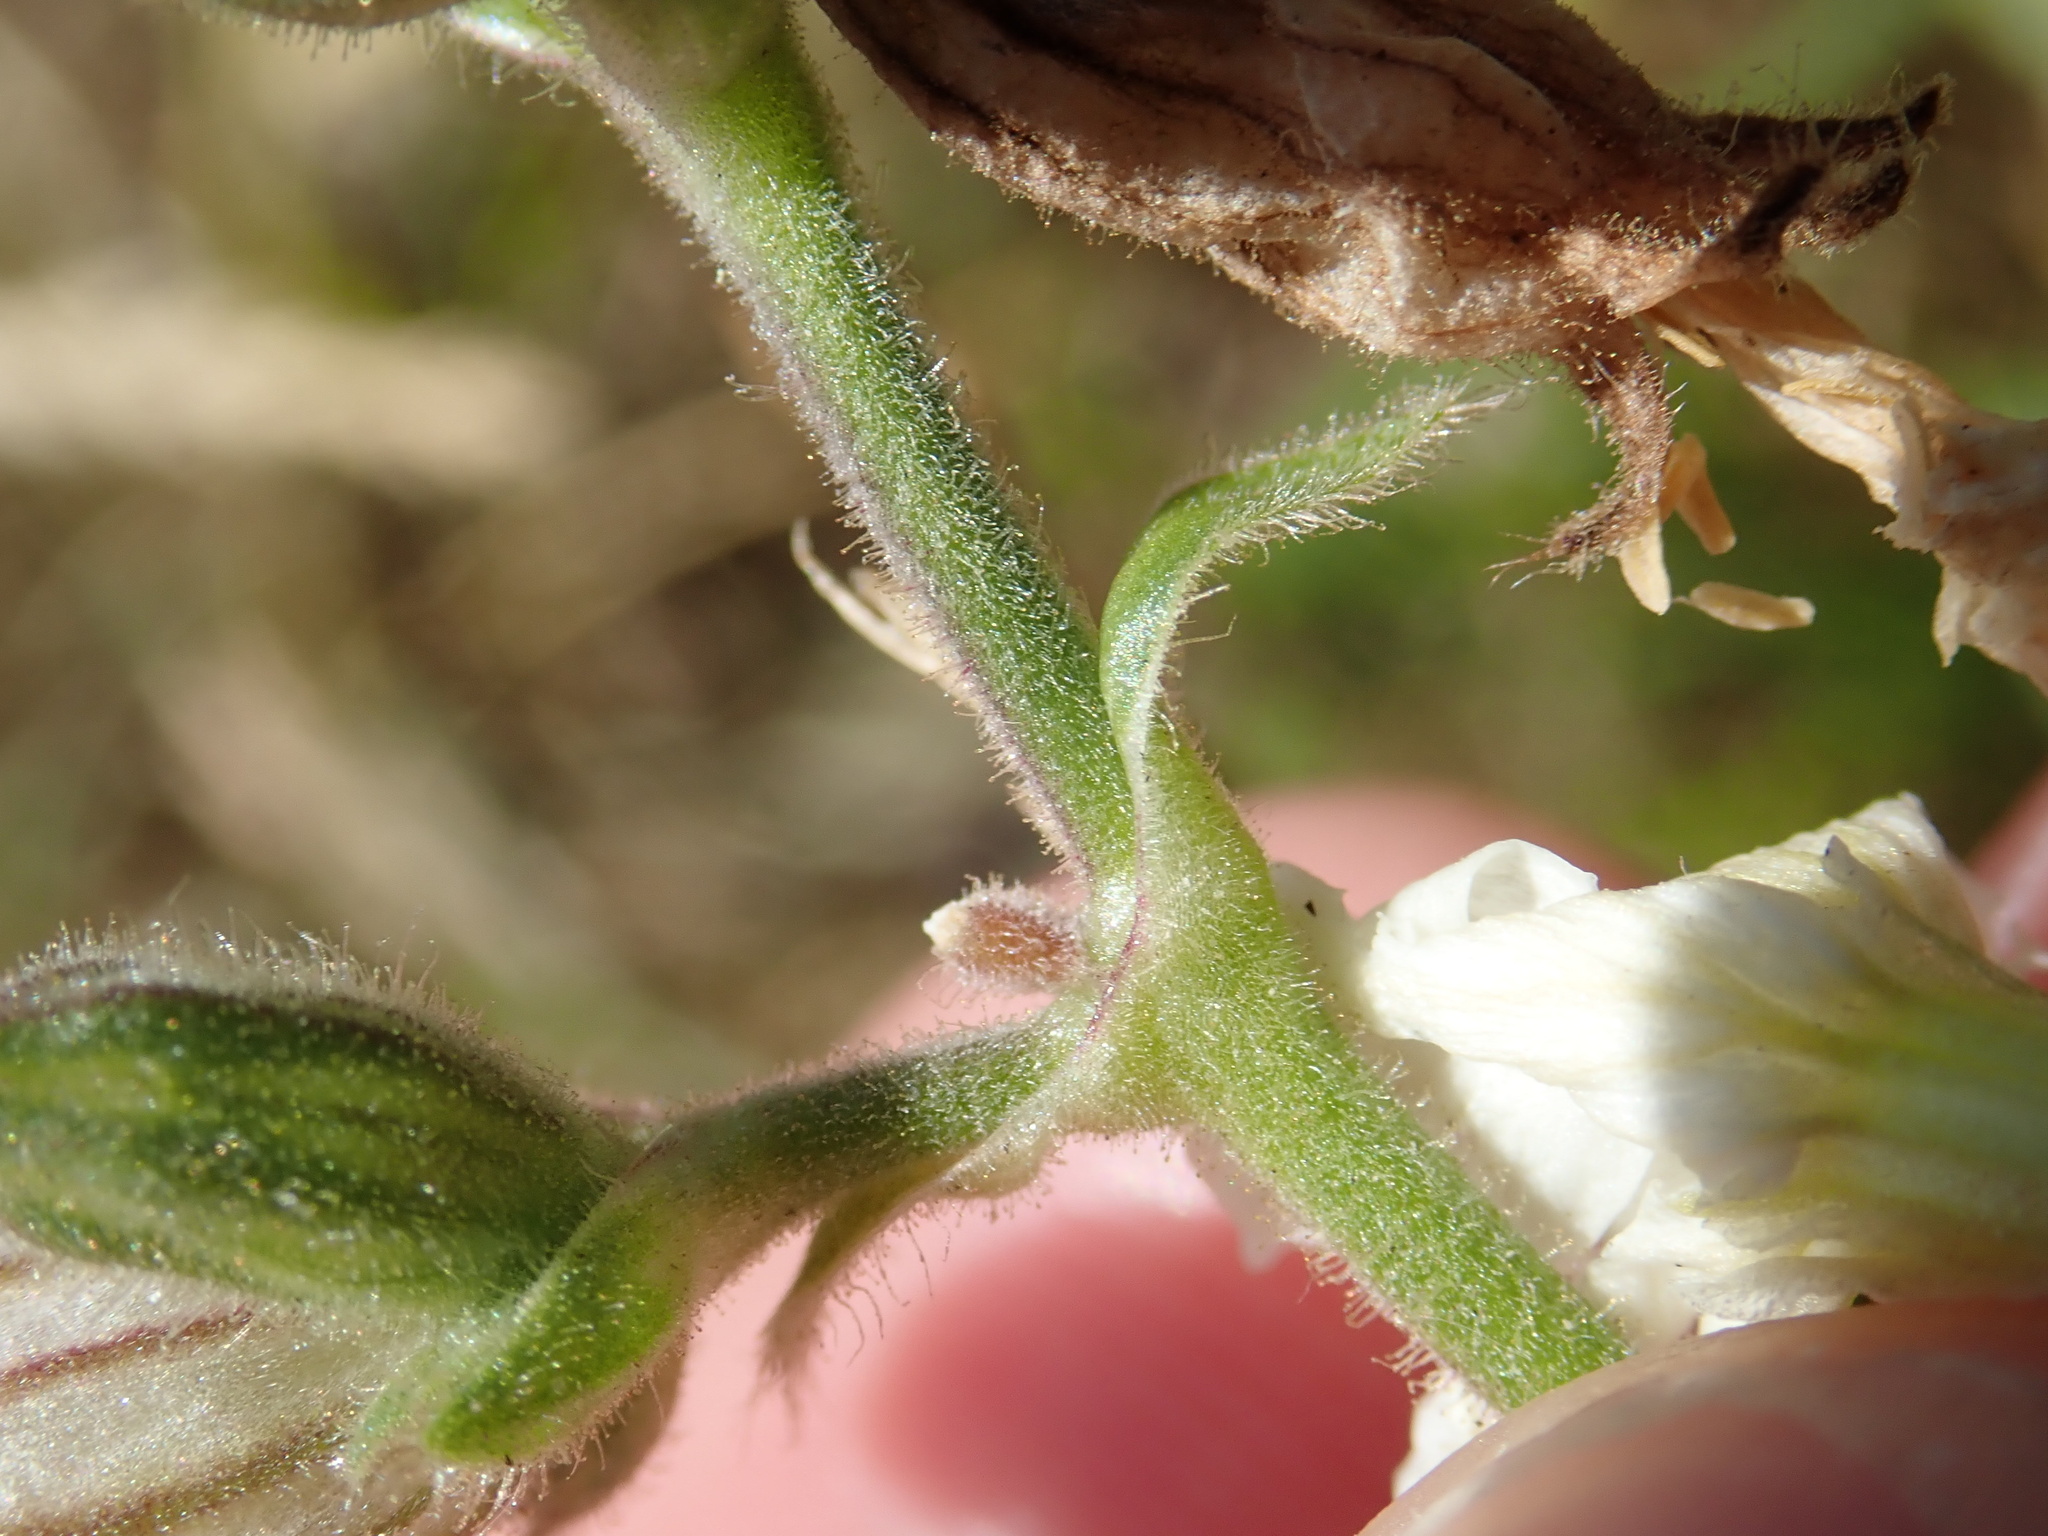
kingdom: Plantae
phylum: Tracheophyta
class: Magnoliopsida
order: Caryophyllales
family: Caryophyllaceae
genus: Silene
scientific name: Silene latifolia
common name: White campion
